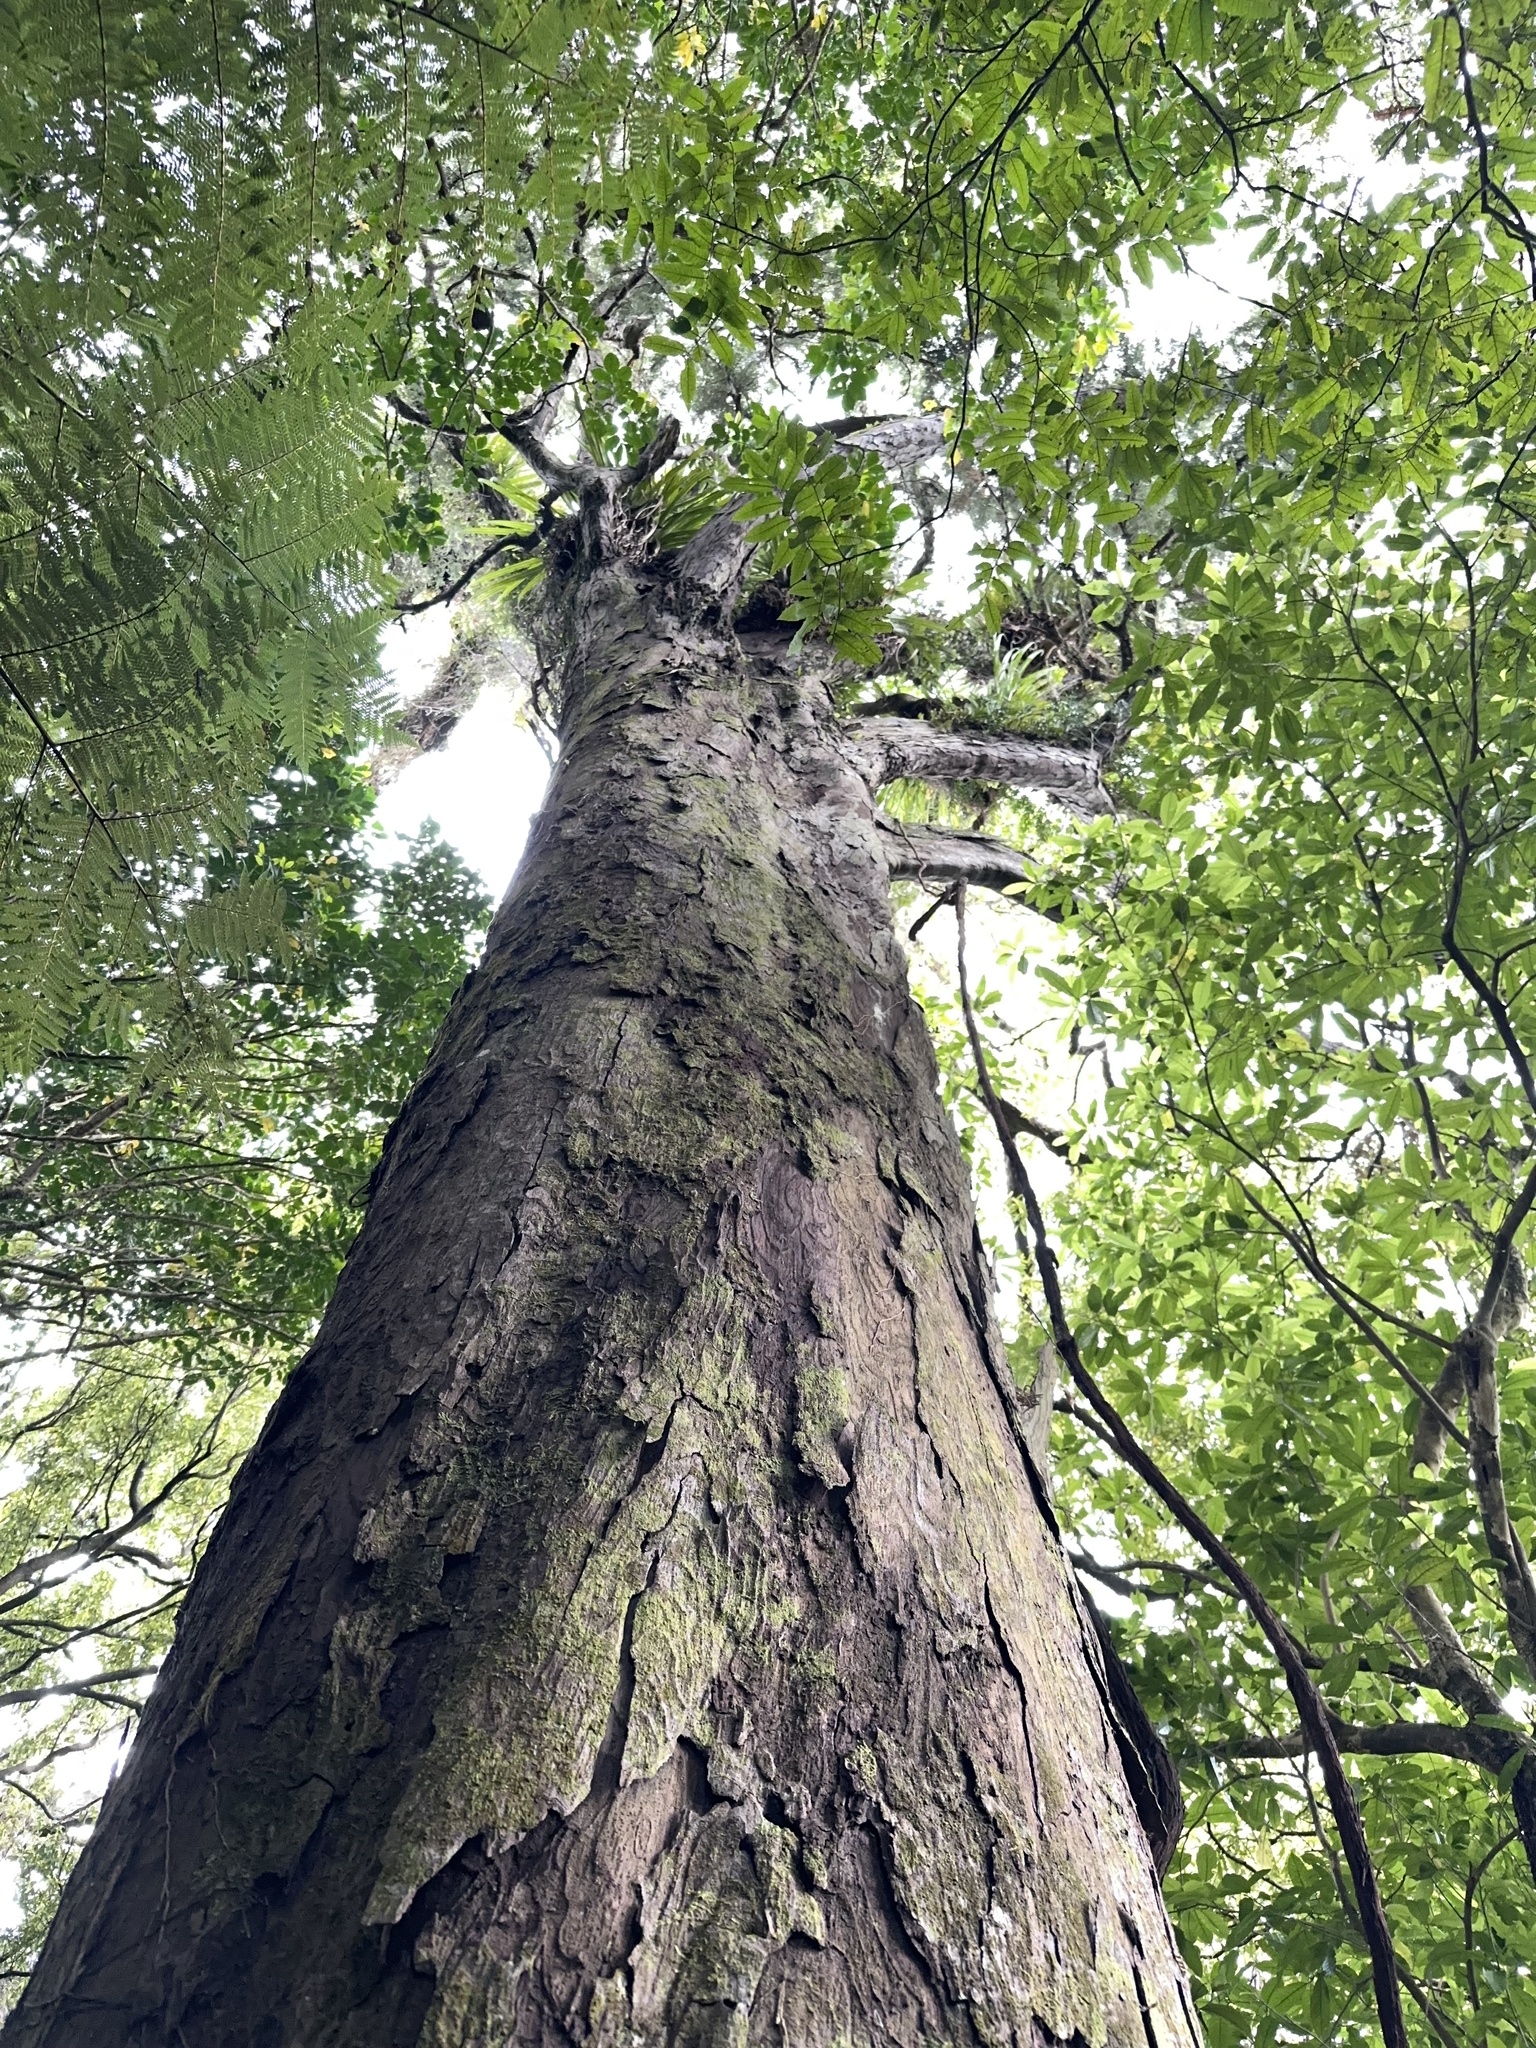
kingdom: Plantae
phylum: Tracheophyta
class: Pinopsida
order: Pinales
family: Podocarpaceae
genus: Dacrydium
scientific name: Dacrydium cupressinum
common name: Red pine
